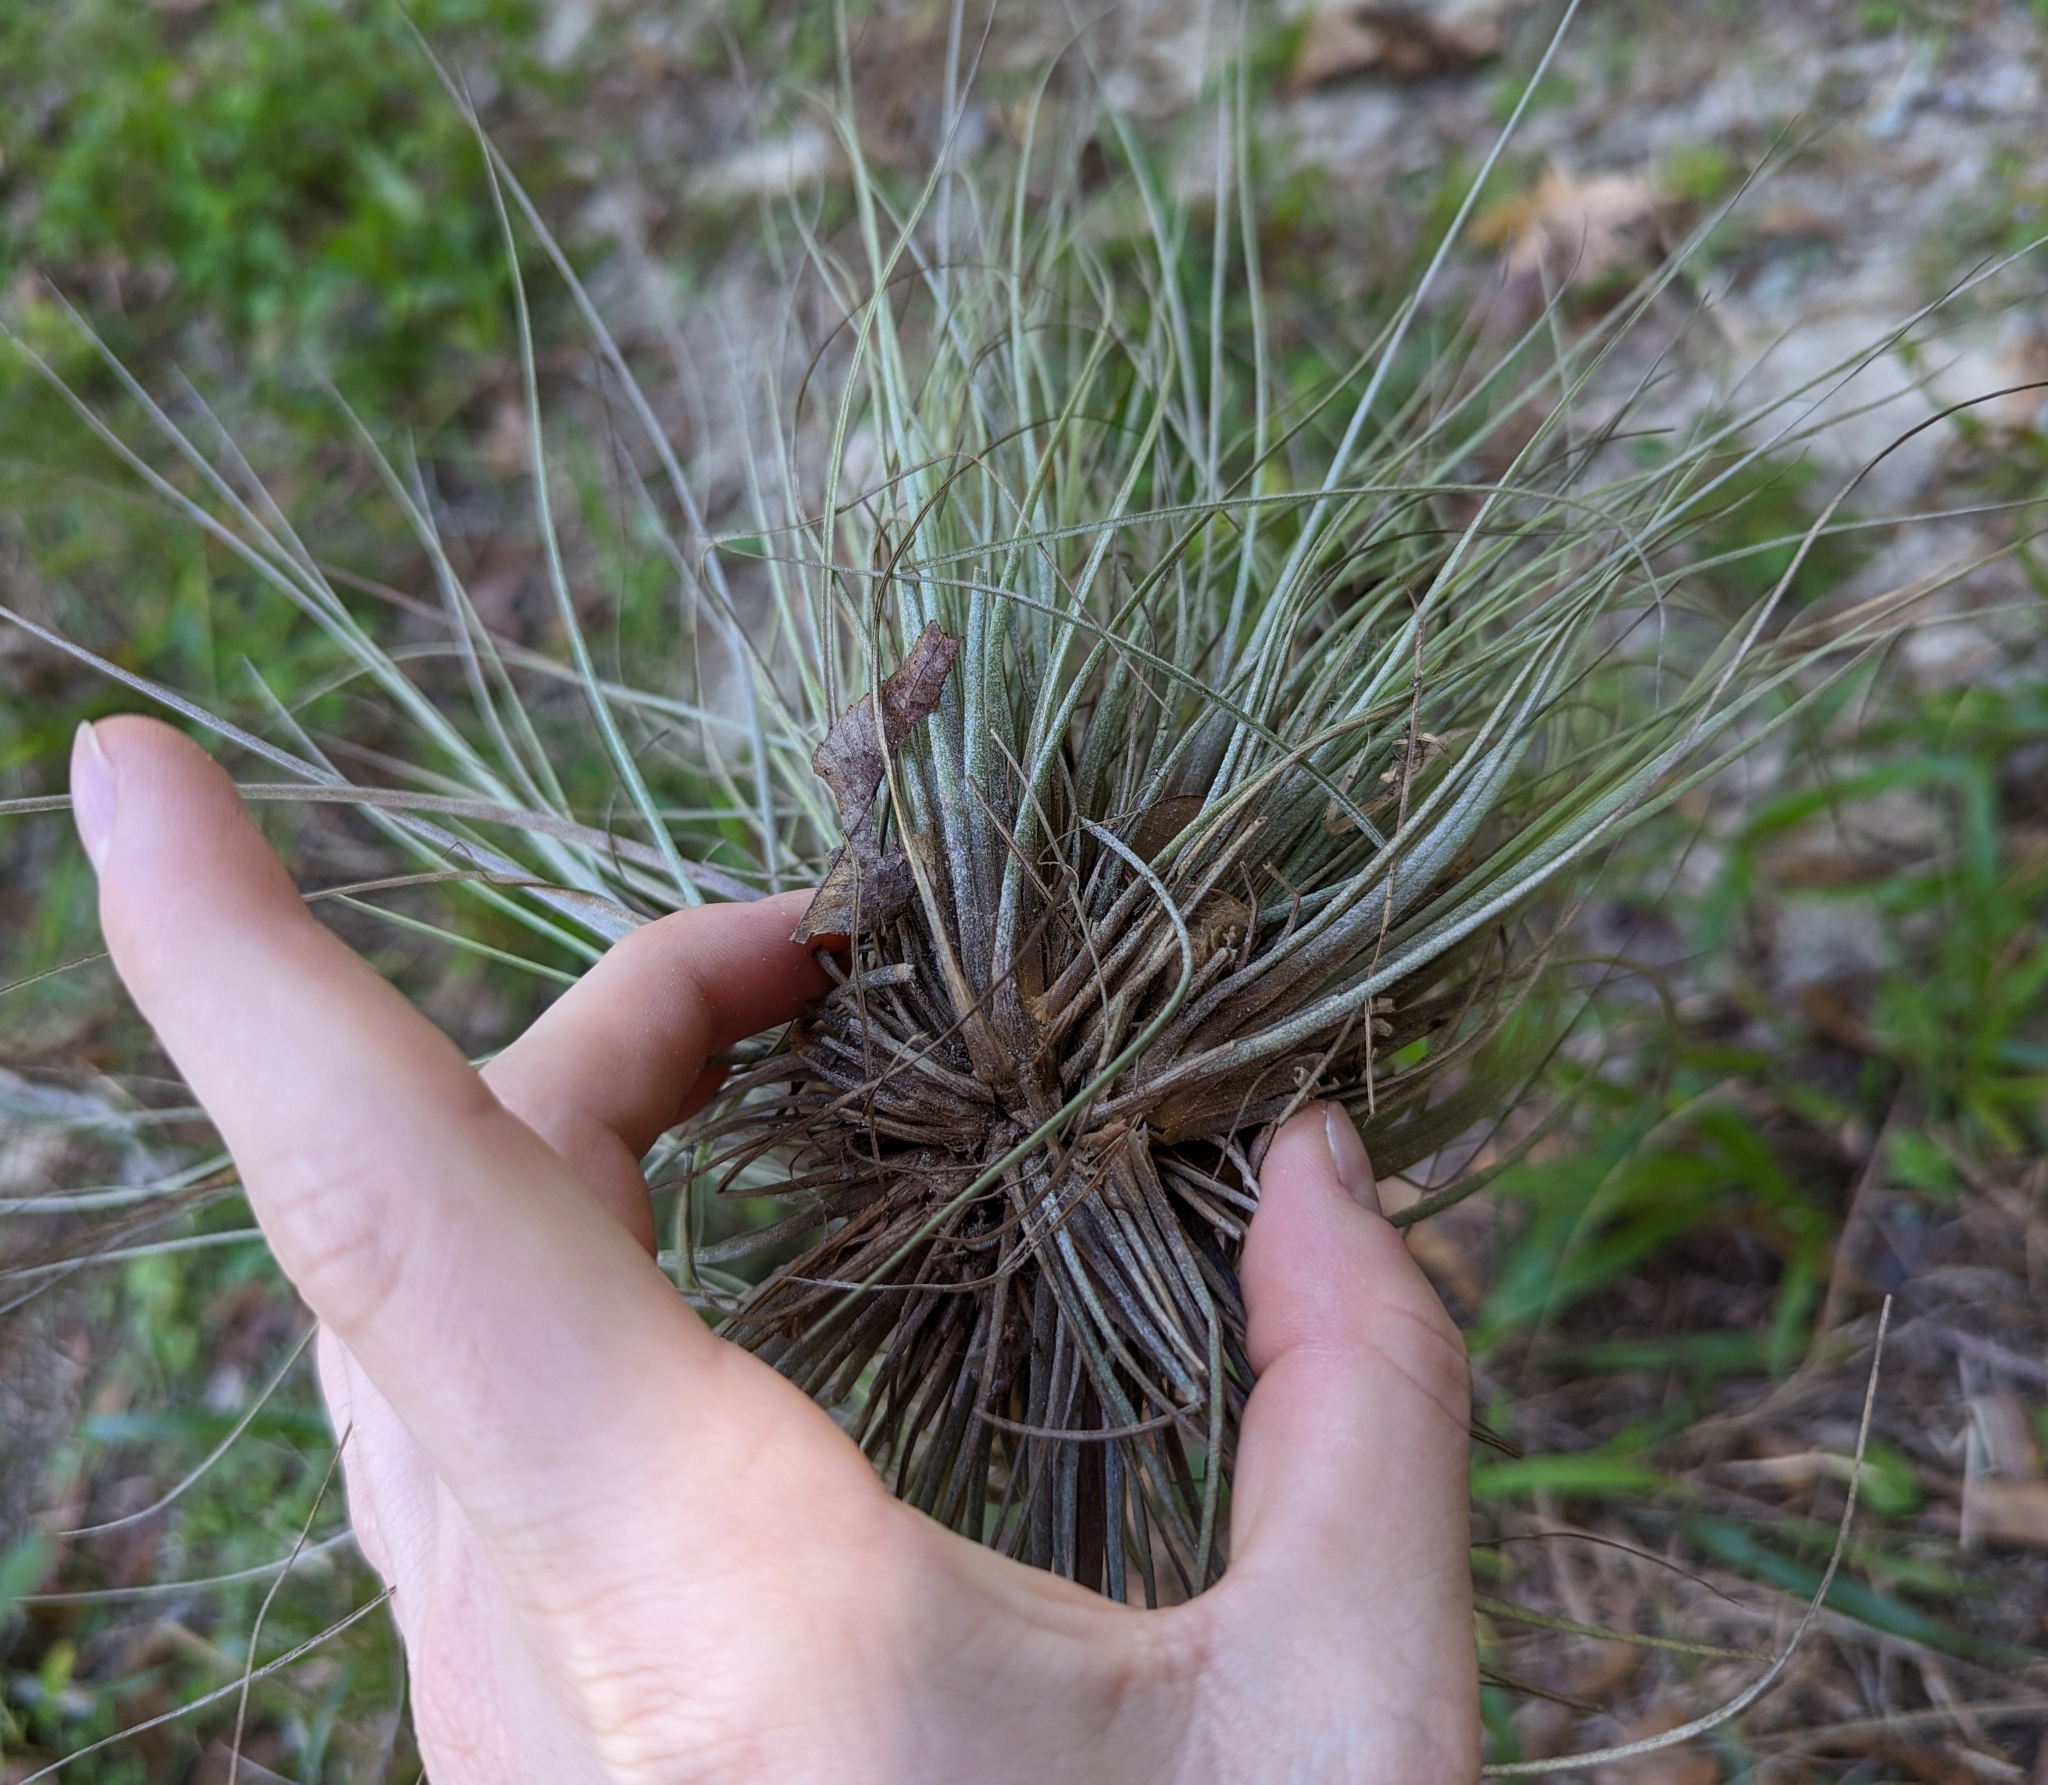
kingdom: Plantae
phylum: Tracheophyta
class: Liliopsida
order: Poales
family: Bromeliaceae
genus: Tillandsia
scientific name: Tillandsia bartramii
